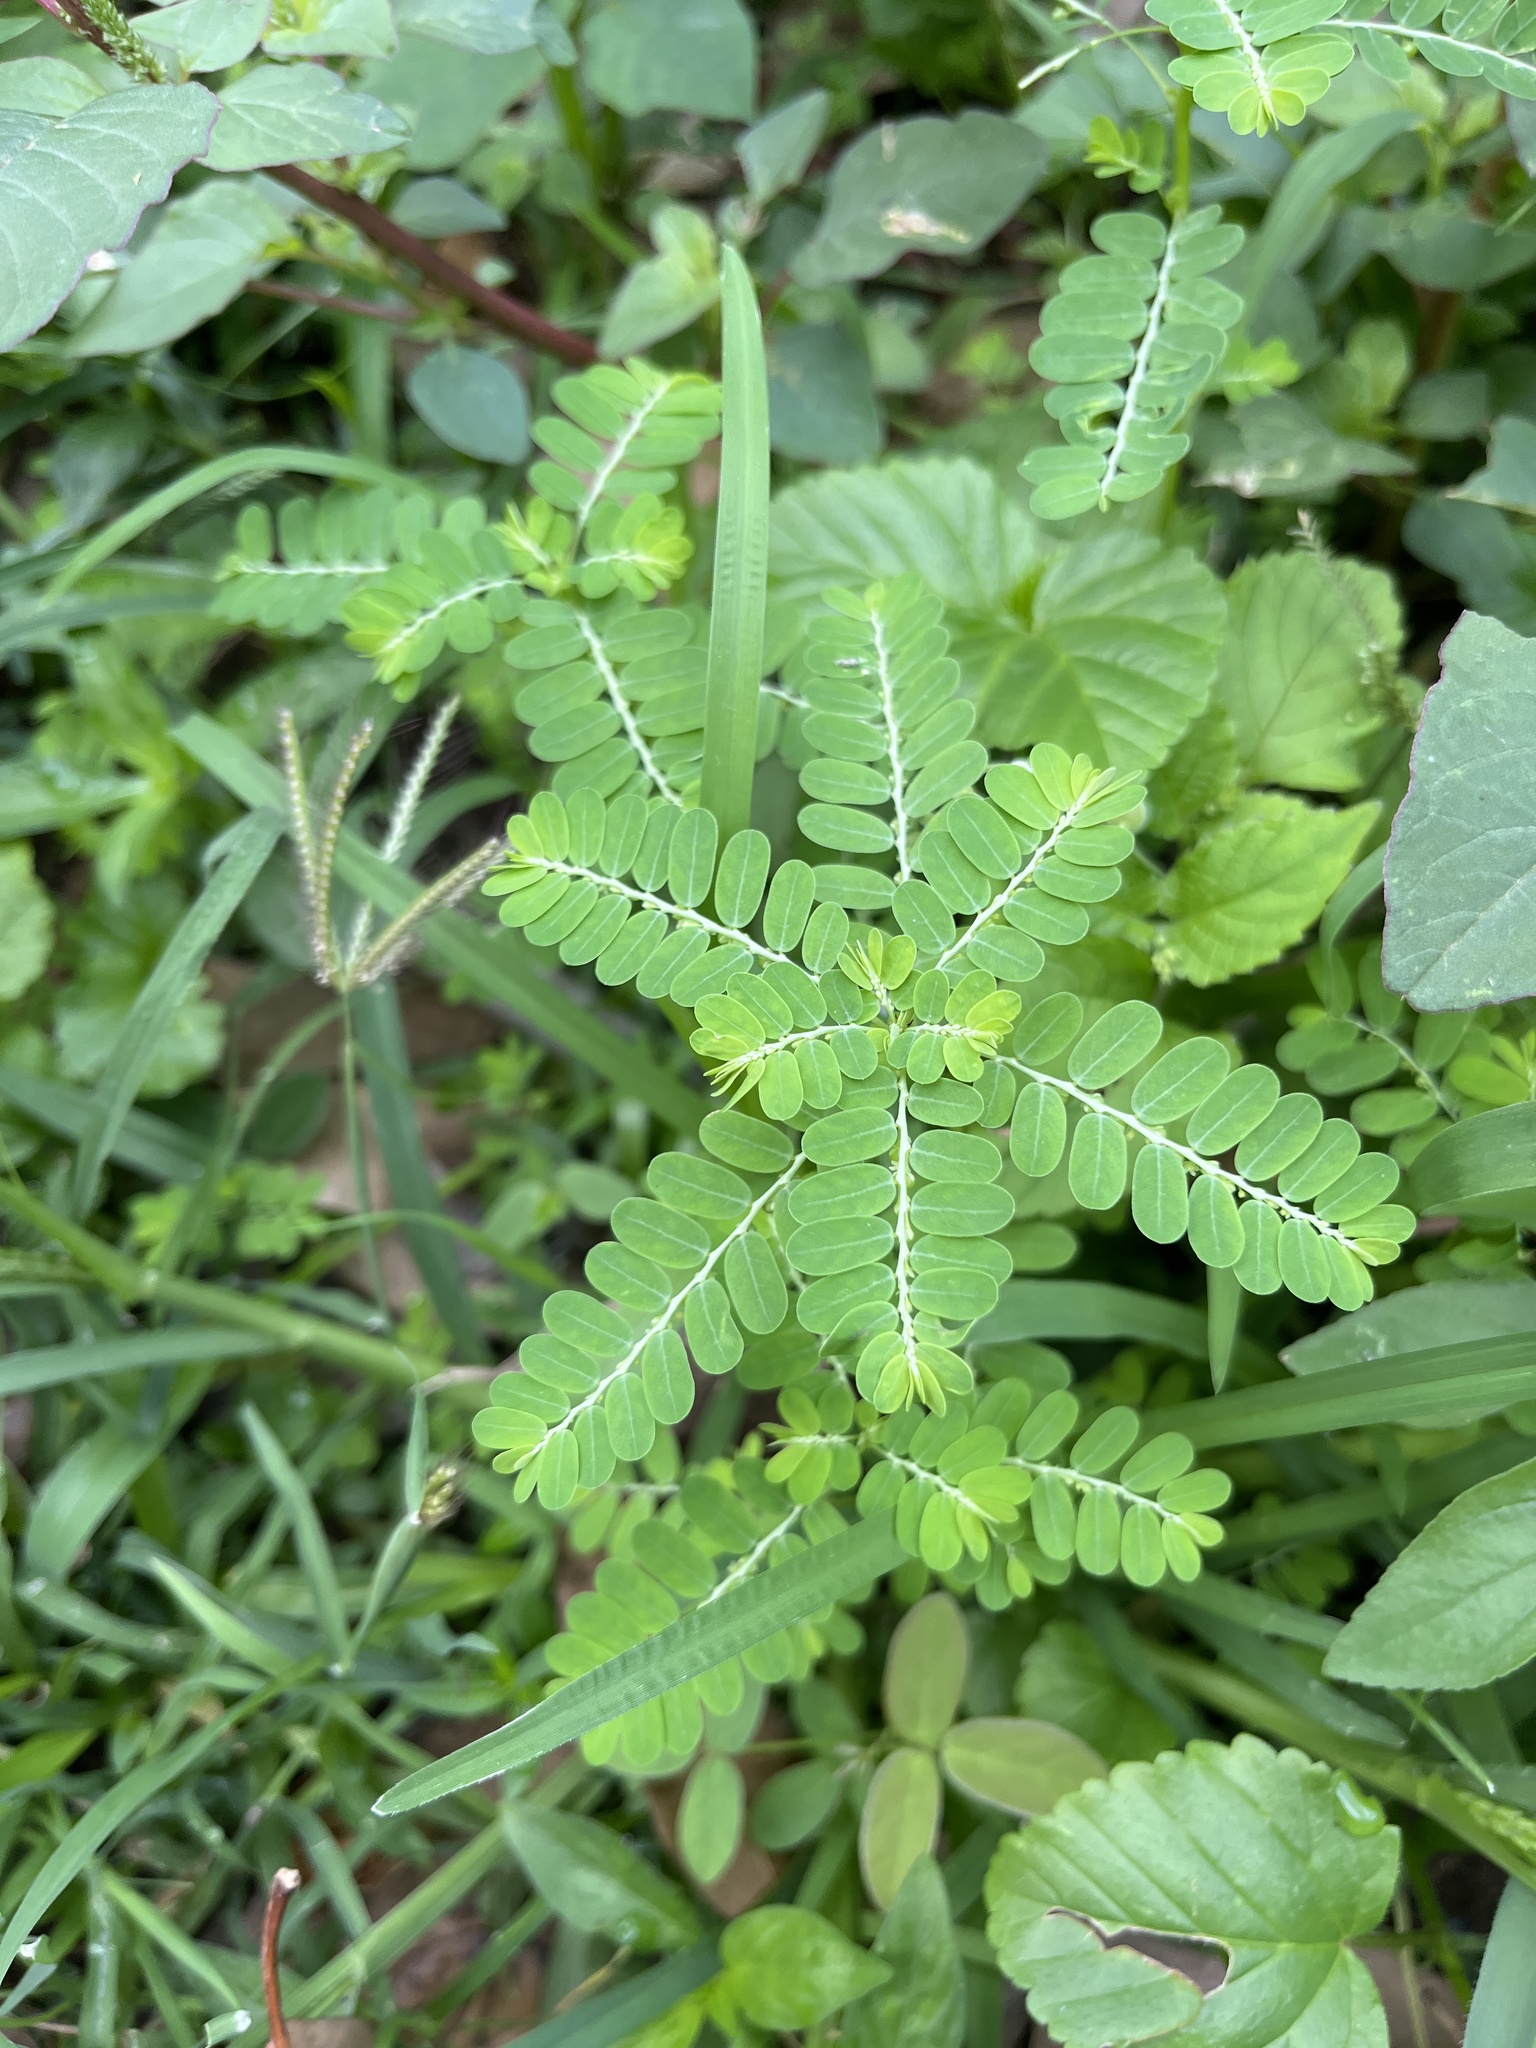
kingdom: Plantae
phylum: Tracheophyta
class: Magnoliopsida
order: Malpighiales
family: Phyllanthaceae
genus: Phyllanthus
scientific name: Phyllanthus amarus
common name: Carry me seed
